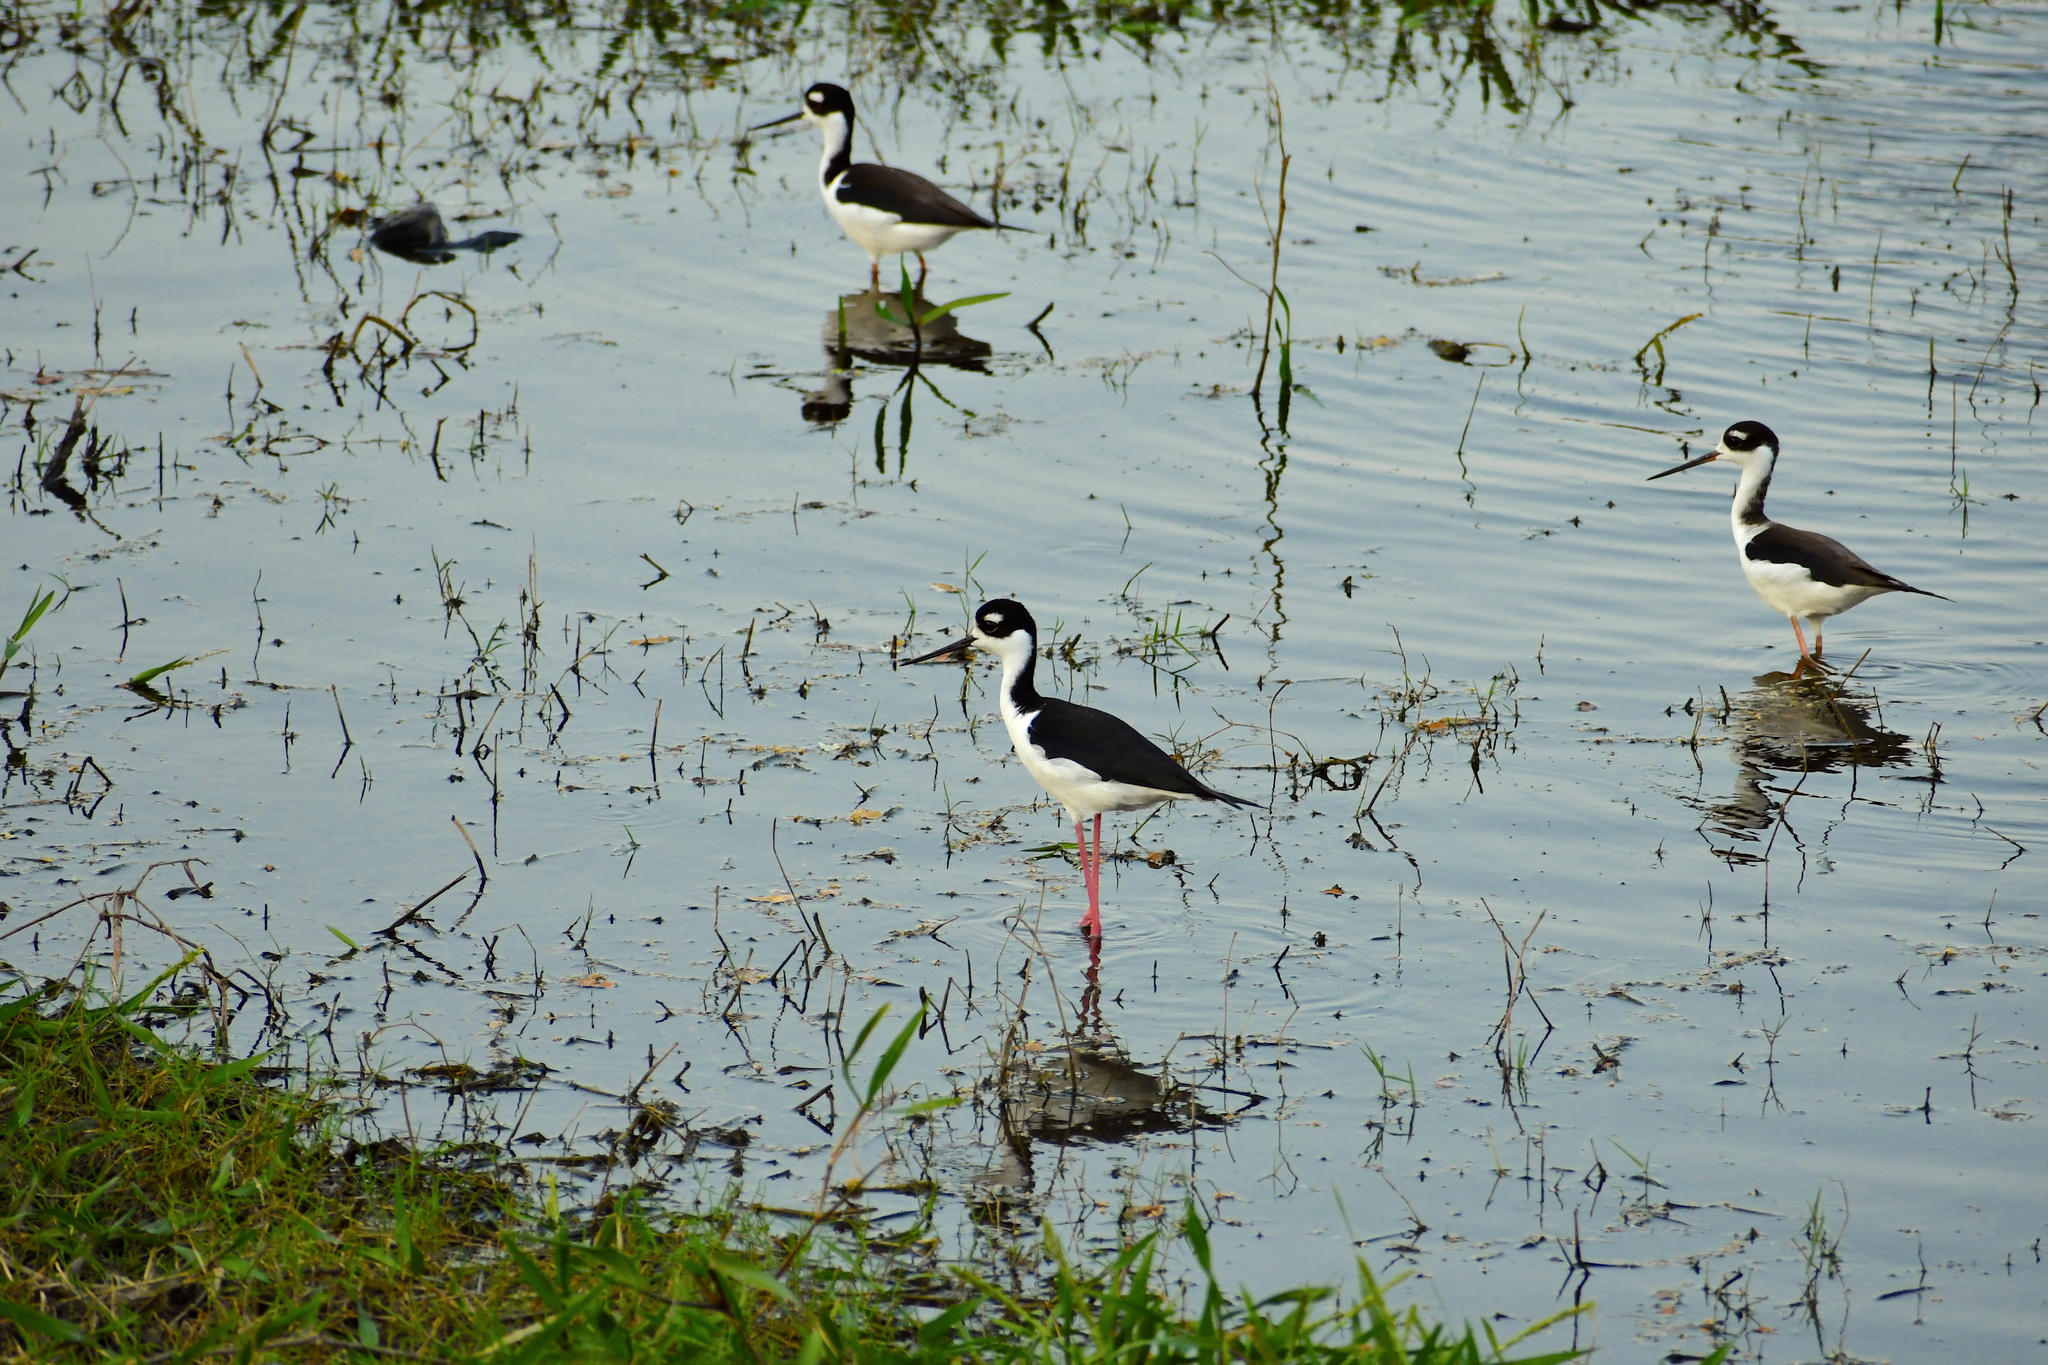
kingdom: Animalia
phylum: Chordata
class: Aves
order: Charadriiformes
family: Recurvirostridae
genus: Himantopus
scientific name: Himantopus mexicanus
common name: Black-necked stilt
